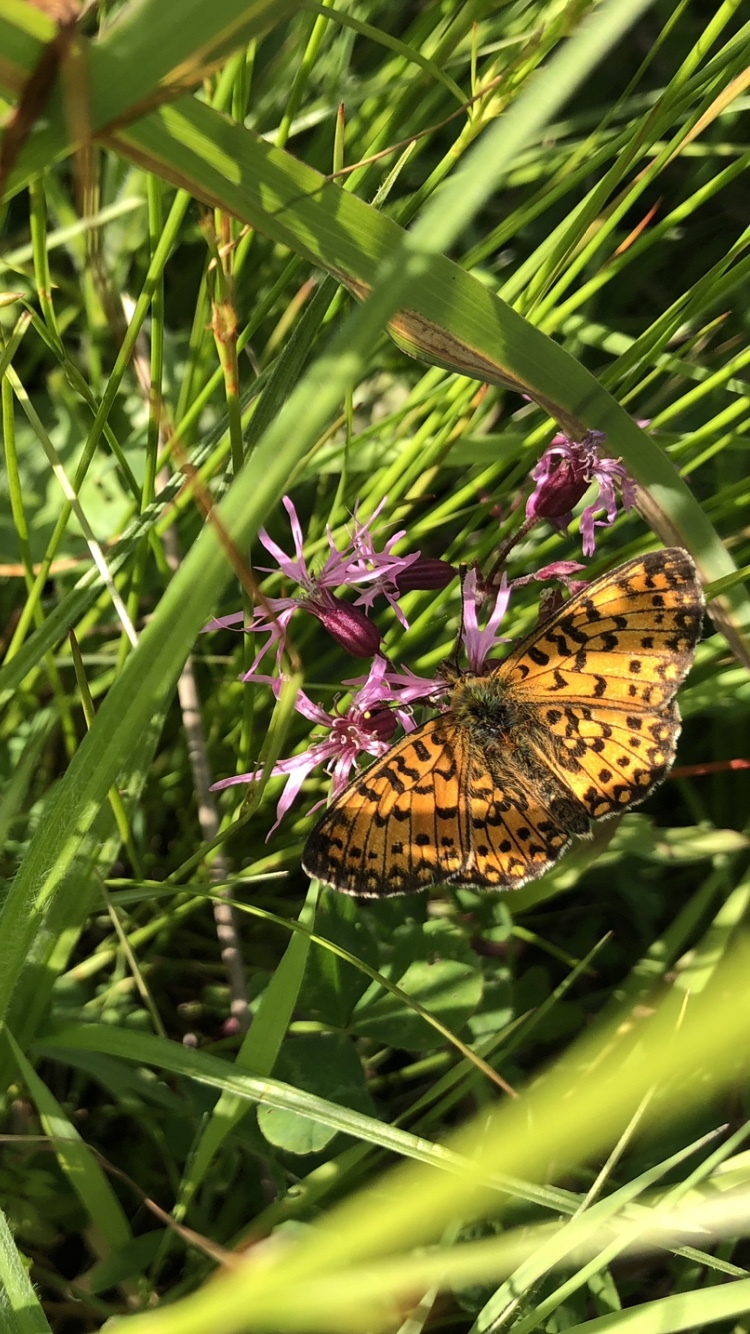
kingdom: Animalia
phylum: Arthropoda
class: Insecta
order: Lepidoptera
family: Nymphalidae
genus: Boloria
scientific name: Boloria selene
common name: Small pearl-bordered fritillary
